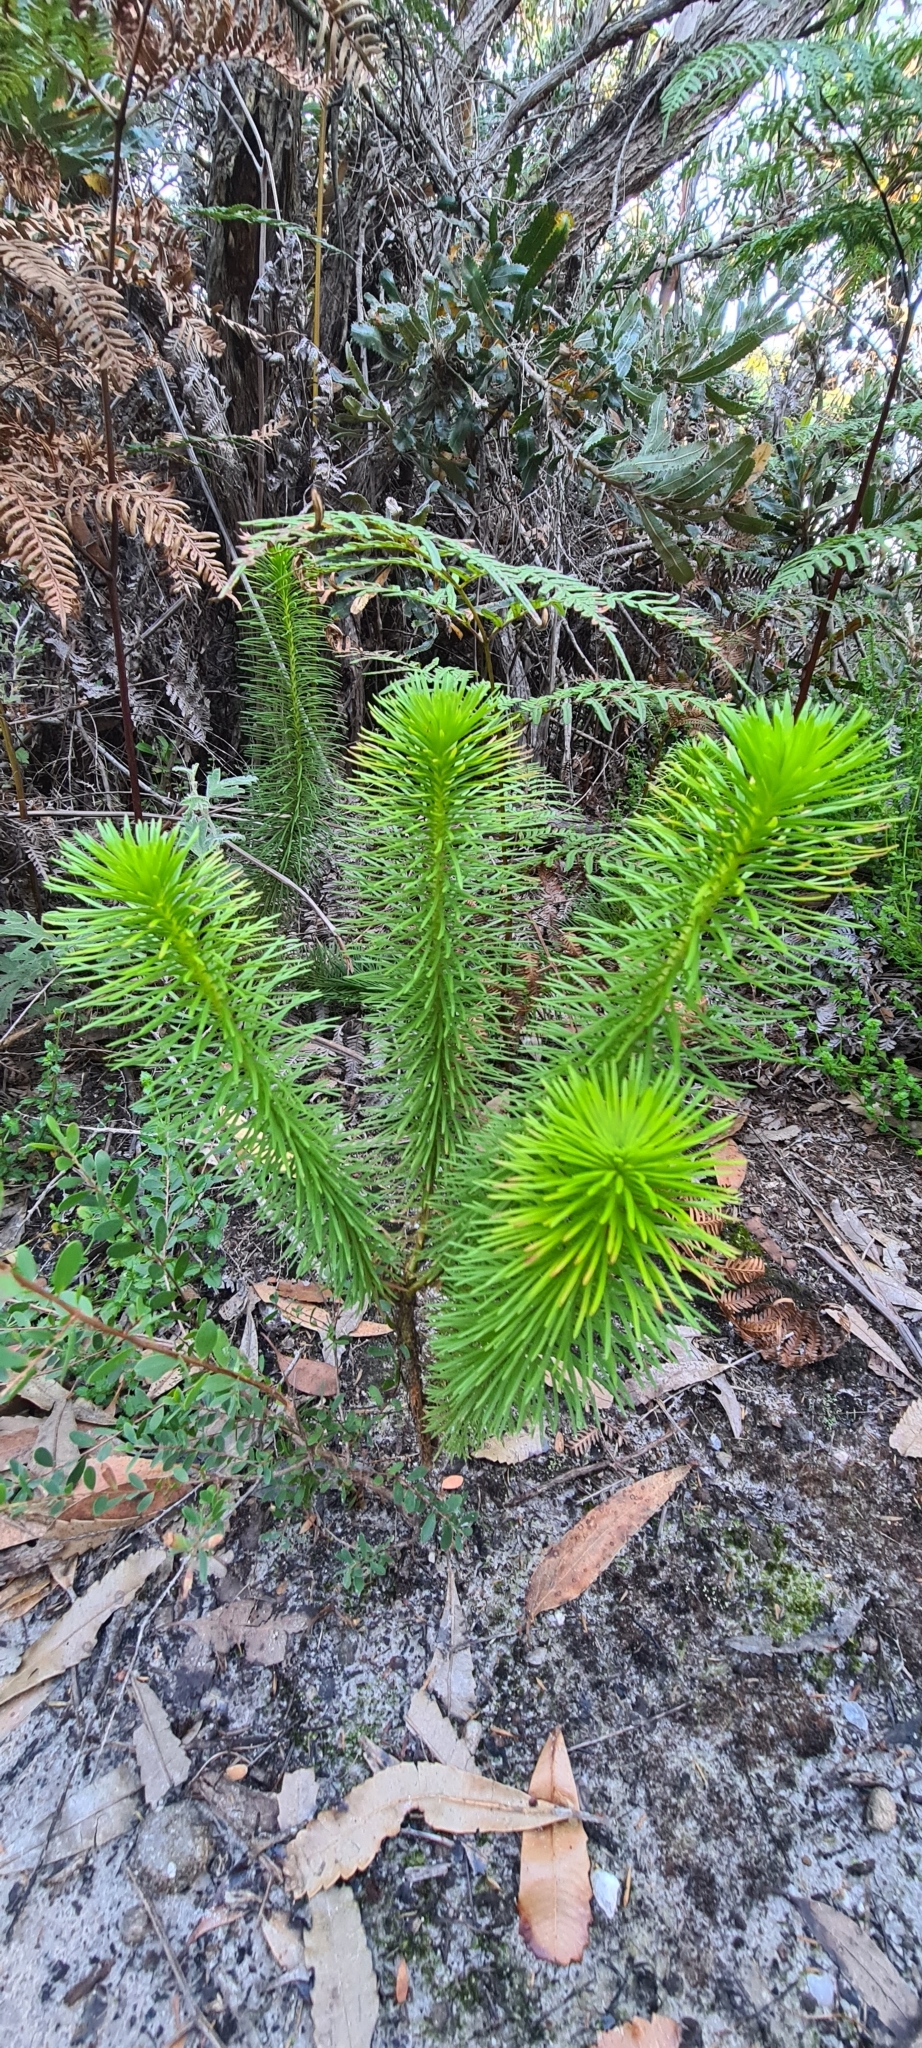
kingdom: Plantae
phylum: Tracheophyta
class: Magnoliopsida
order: Asterales
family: Stylidiaceae
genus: Stylidium
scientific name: Stylidium laricifolium
